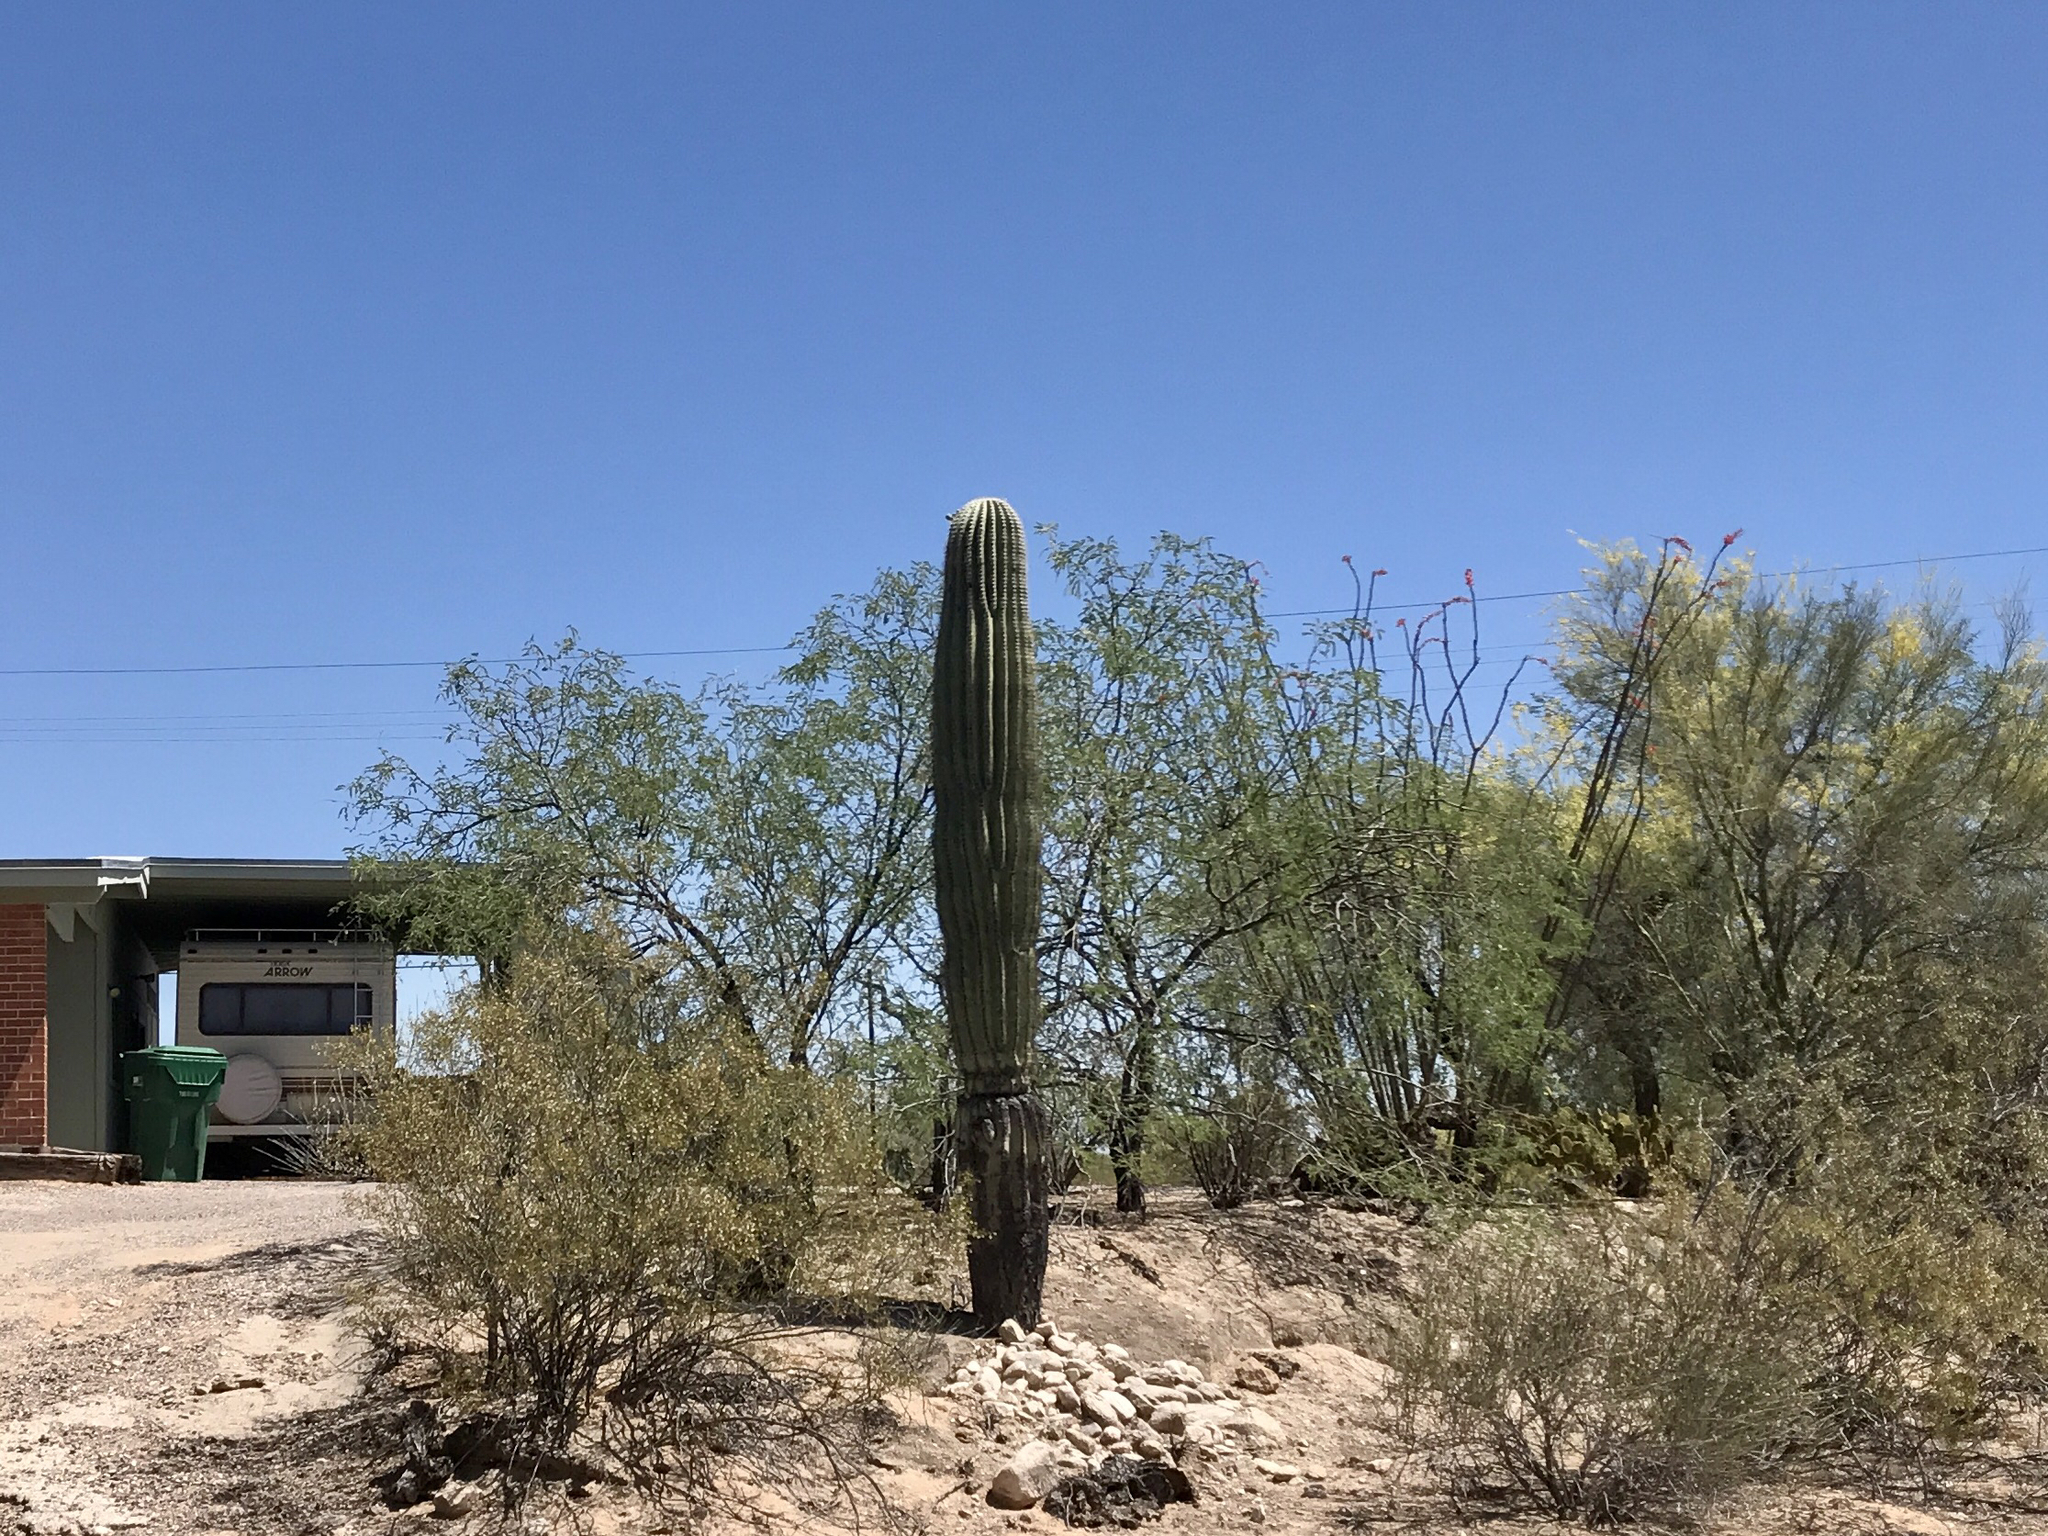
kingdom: Plantae
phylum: Tracheophyta
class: Magnoliopsida
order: Caryophyllales
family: Cactaceae
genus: Carnegiea
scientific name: Carnegiea gigantea
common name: Saguaro
